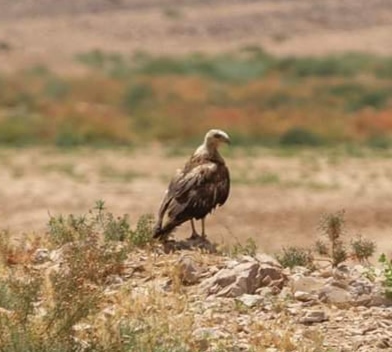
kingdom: Animalia
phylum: Chordata
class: Aves
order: Accipitriformes
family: Accipitridae
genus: Buteo
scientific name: Buteo rufinus
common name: Long-legged buzzard
